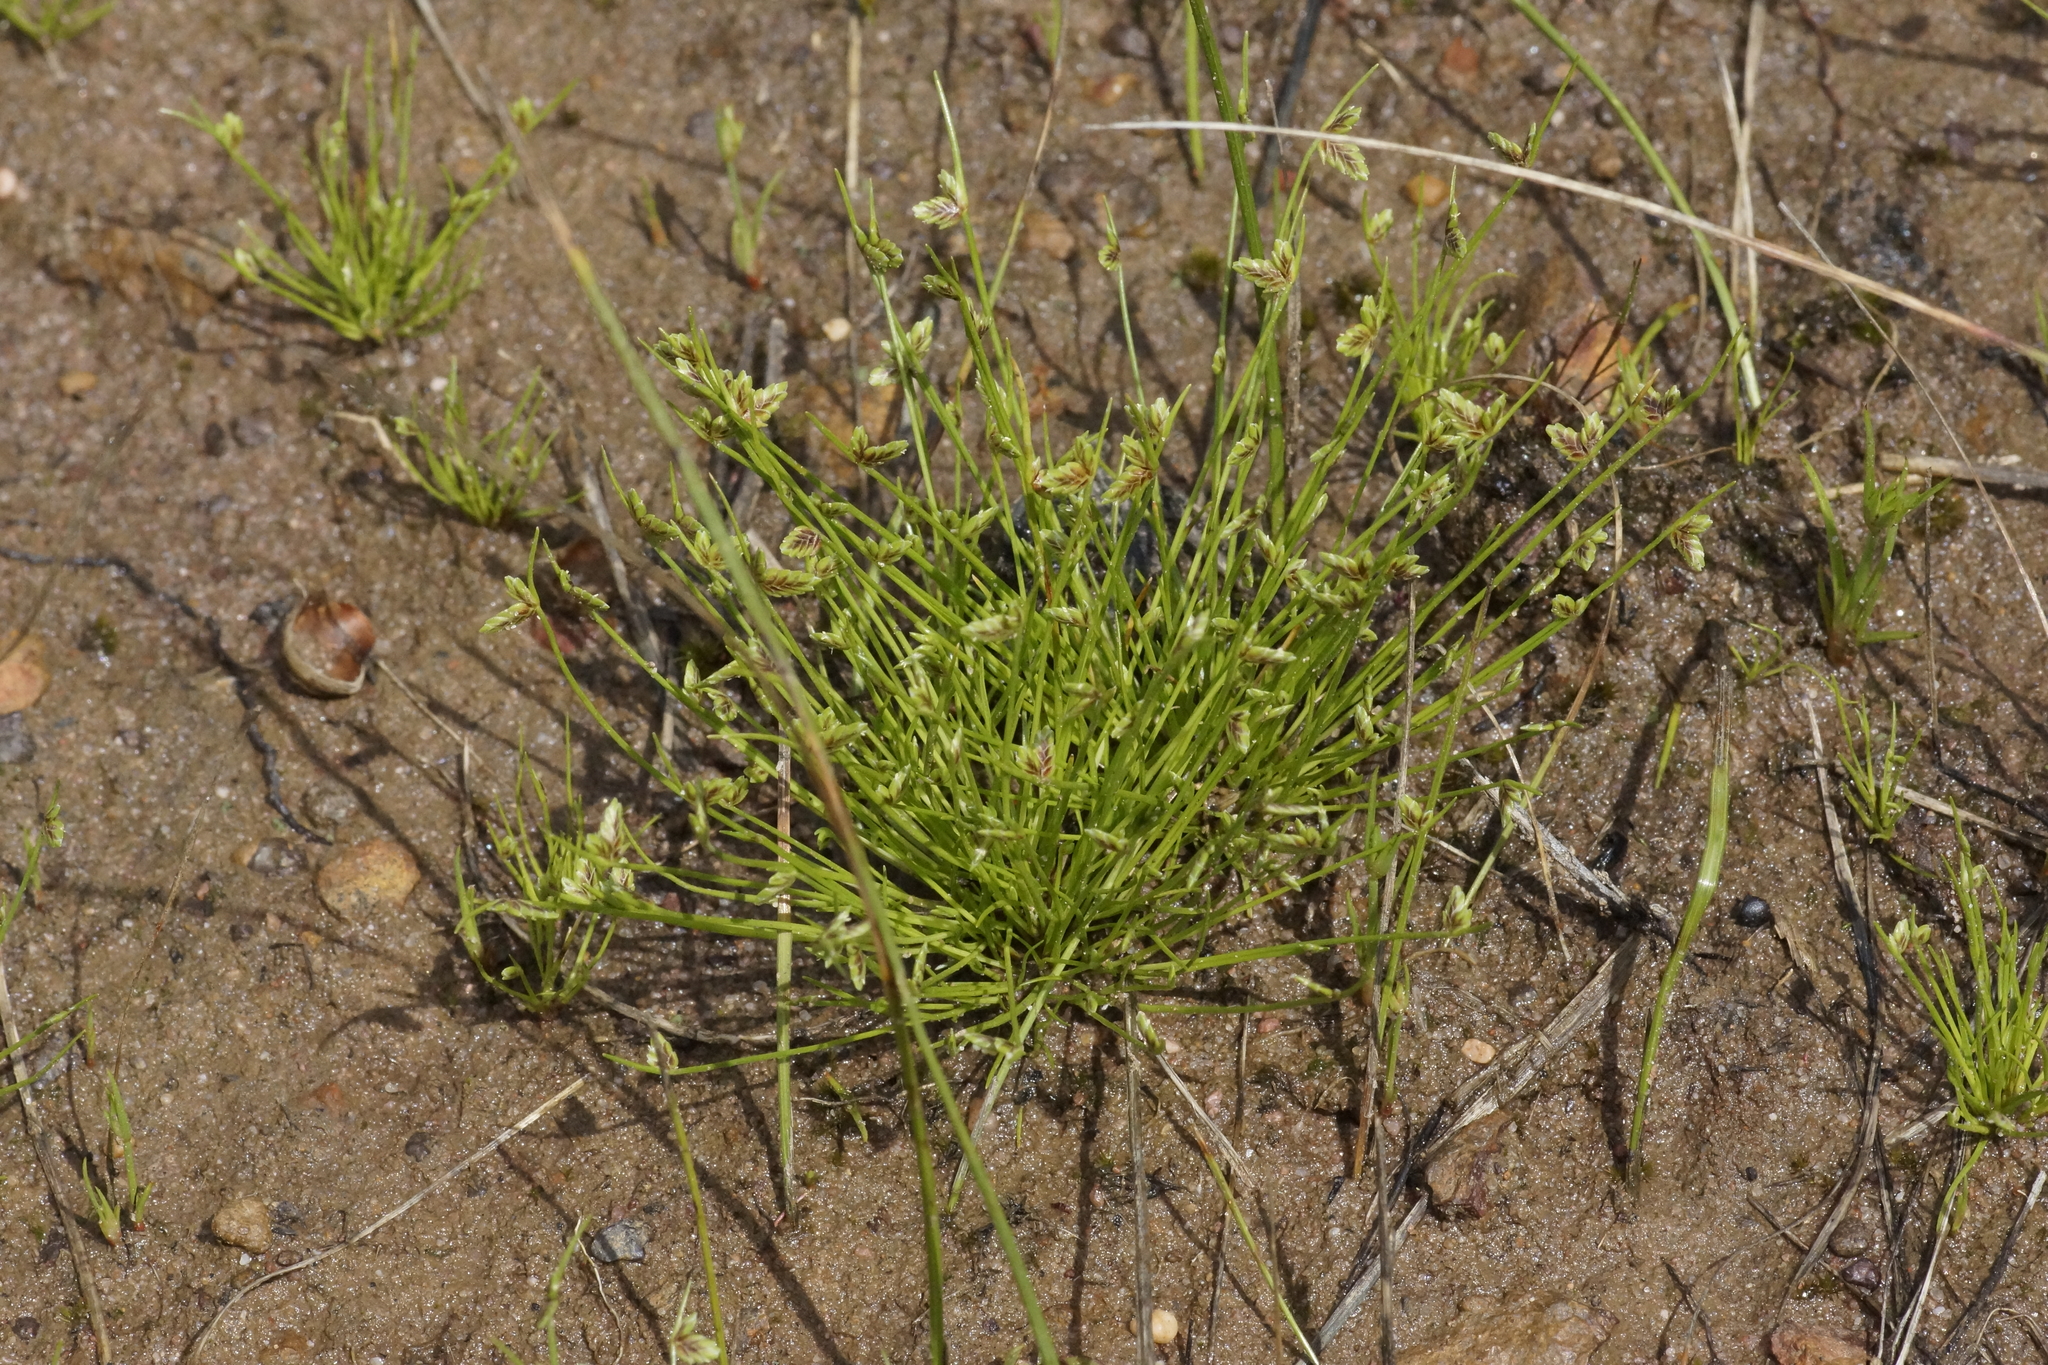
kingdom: Plantae
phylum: Tracheophyta
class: Liliopsida
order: Poales
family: Cyperaceae
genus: Isolepis
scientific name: Isolepis levynsiana
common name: Sedge
